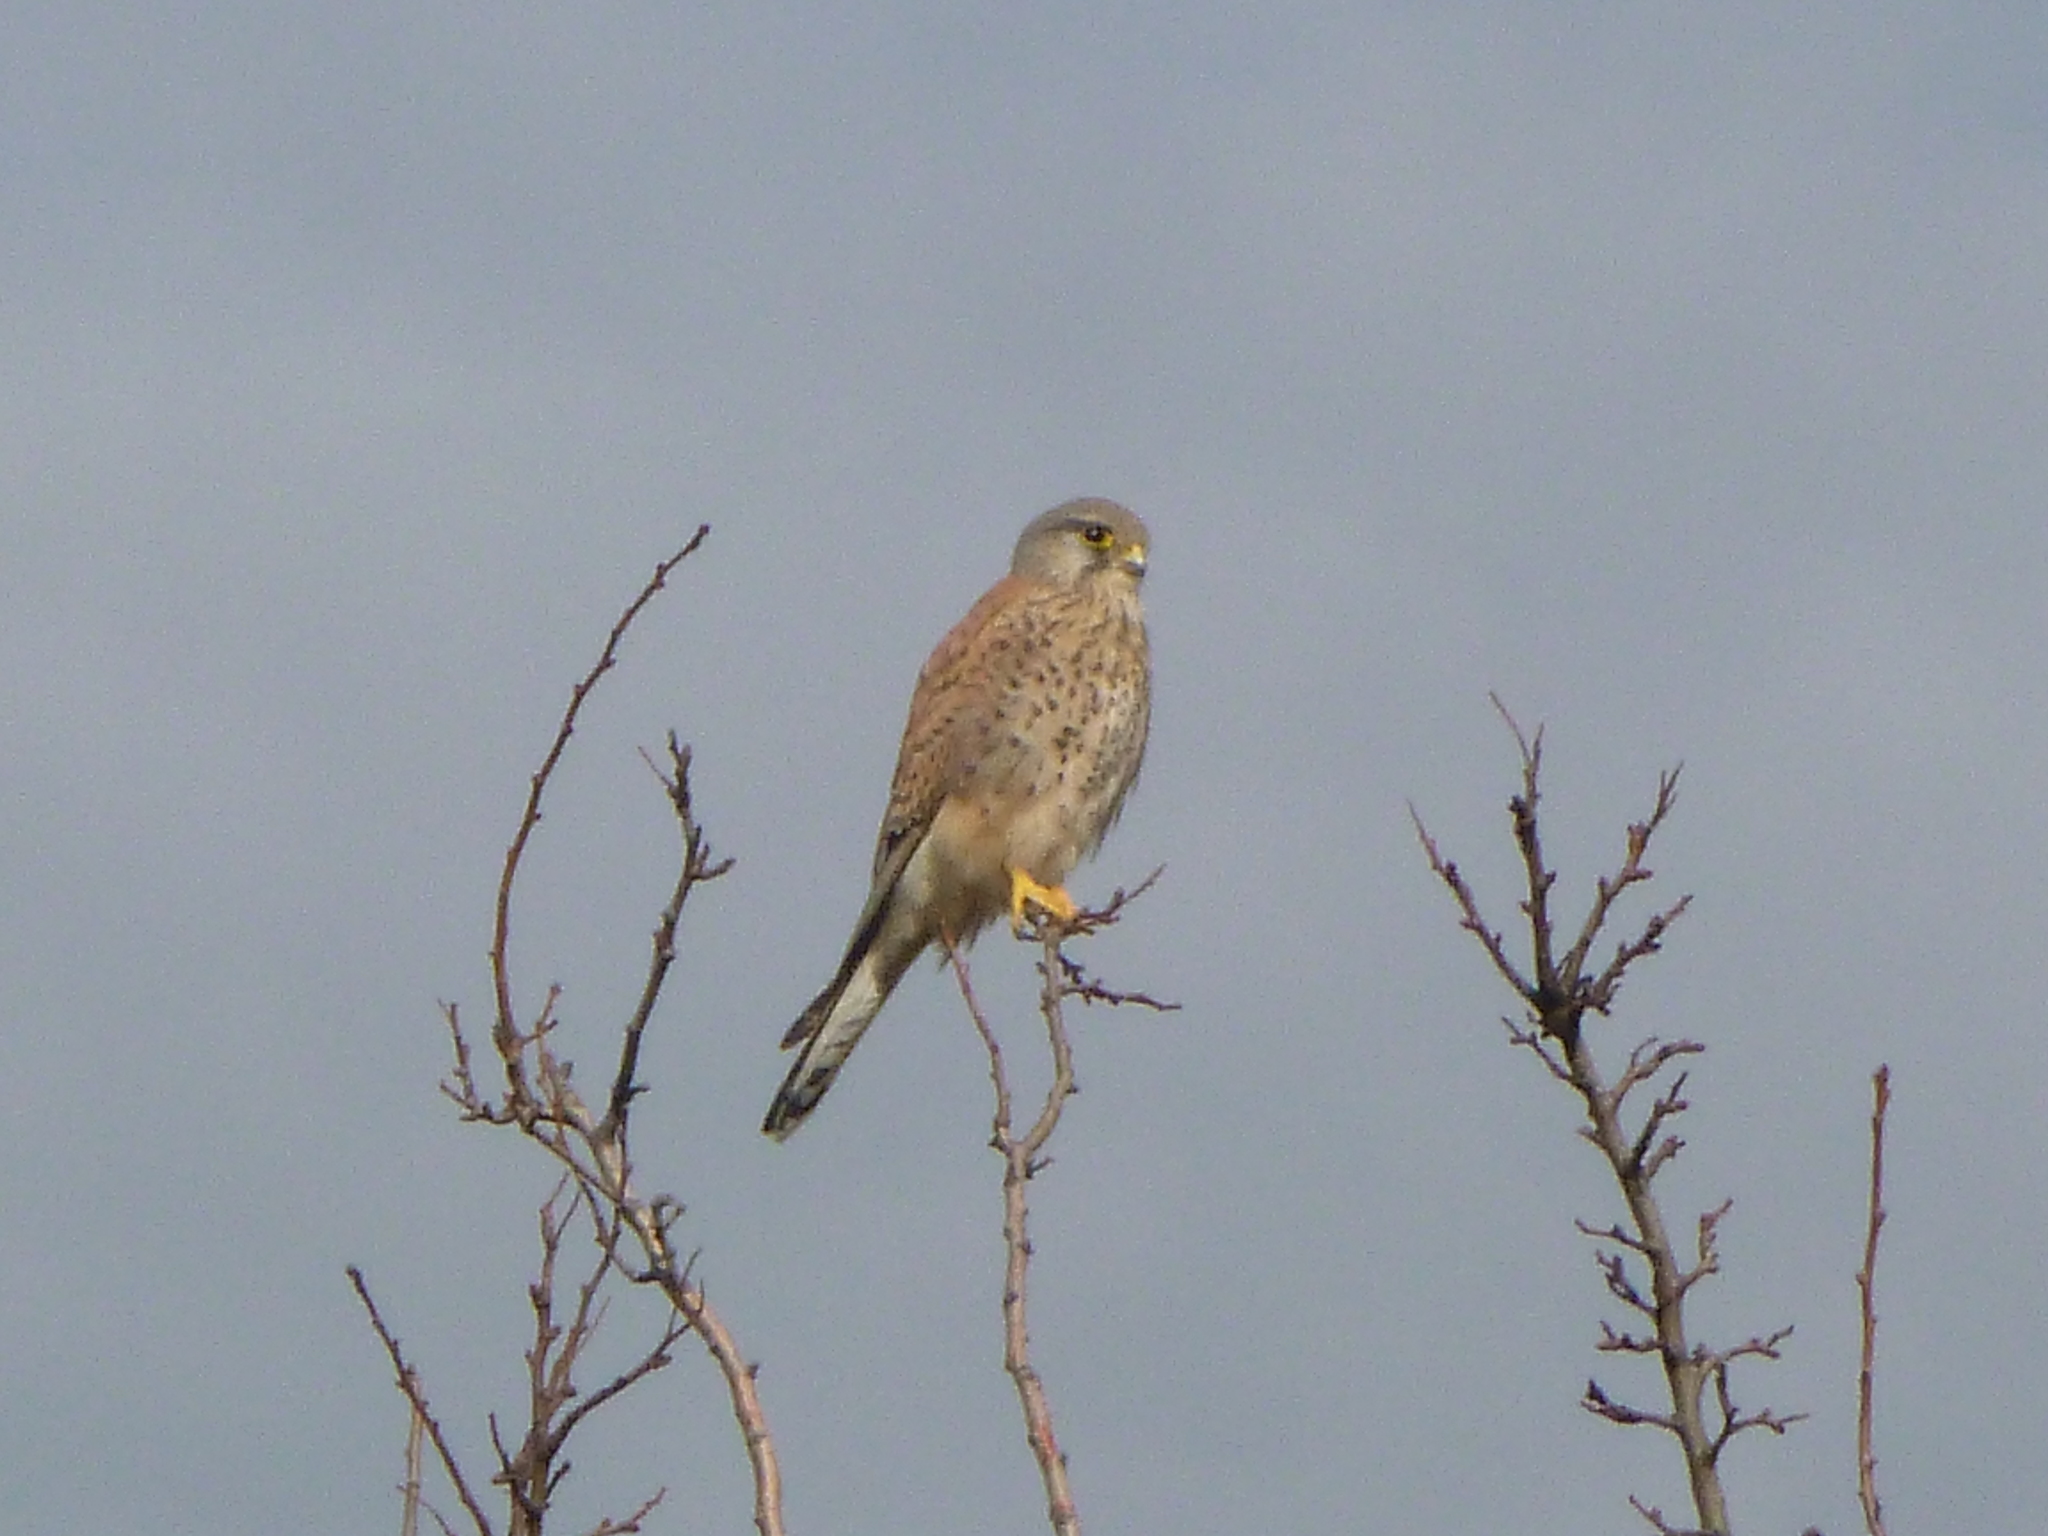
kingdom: Animalia
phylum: Chordata
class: Aves
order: Falconiformes
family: Falconidae
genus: Falco
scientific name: Falco tinnunculus
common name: Common kestrel
